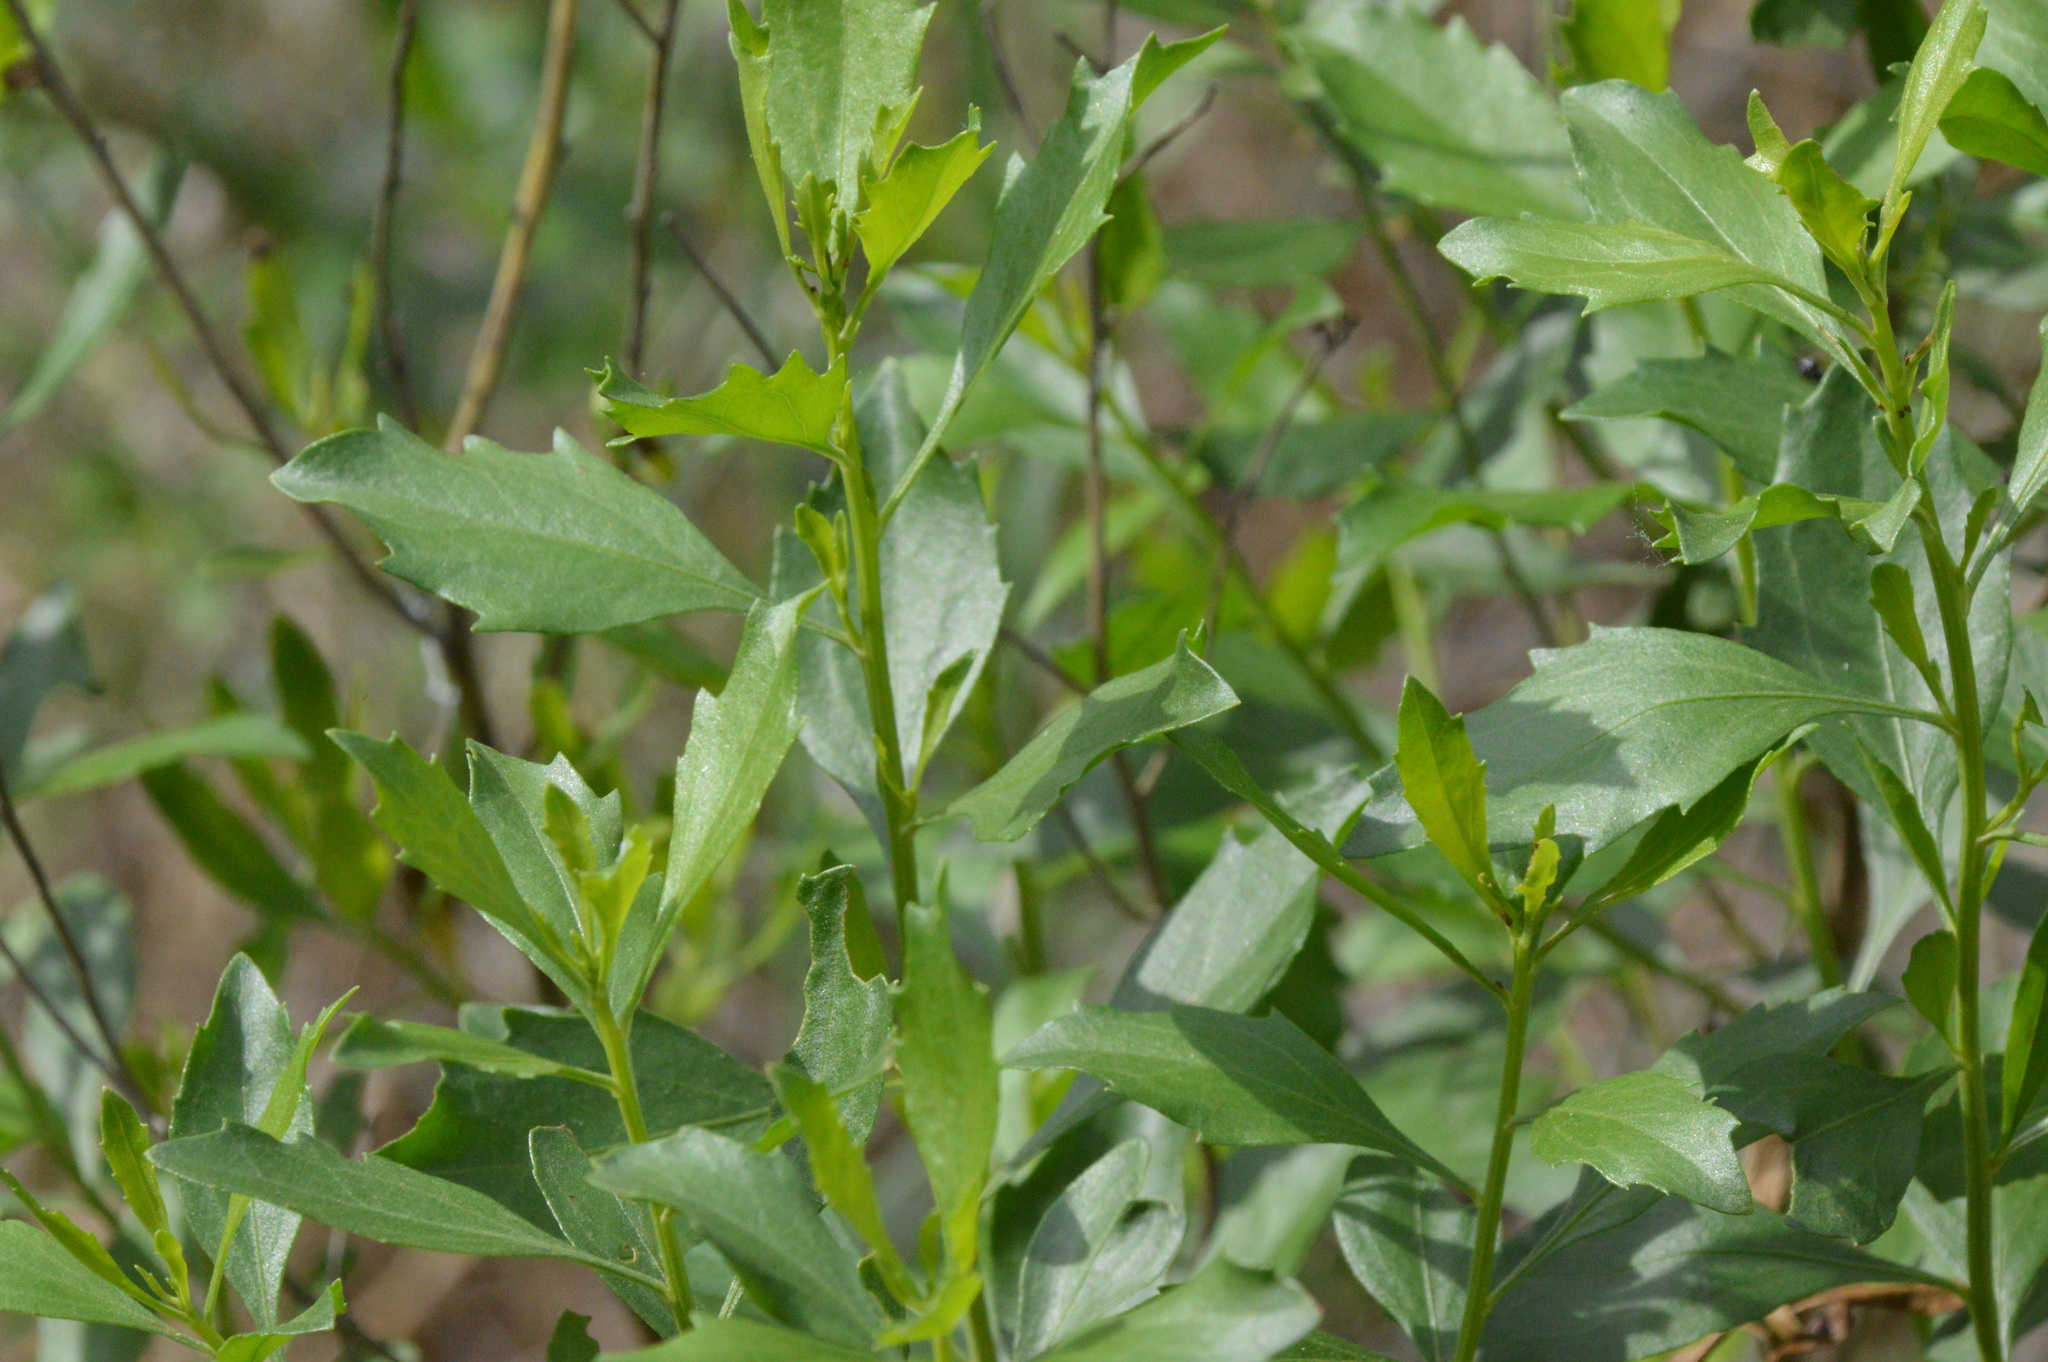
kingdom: Plantae
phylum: Tracheophyta
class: Magnoliopsida
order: Asterales
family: Asteraceae
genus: Baccharis
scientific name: Baccharis halimifolia
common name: Eastern baccharis
